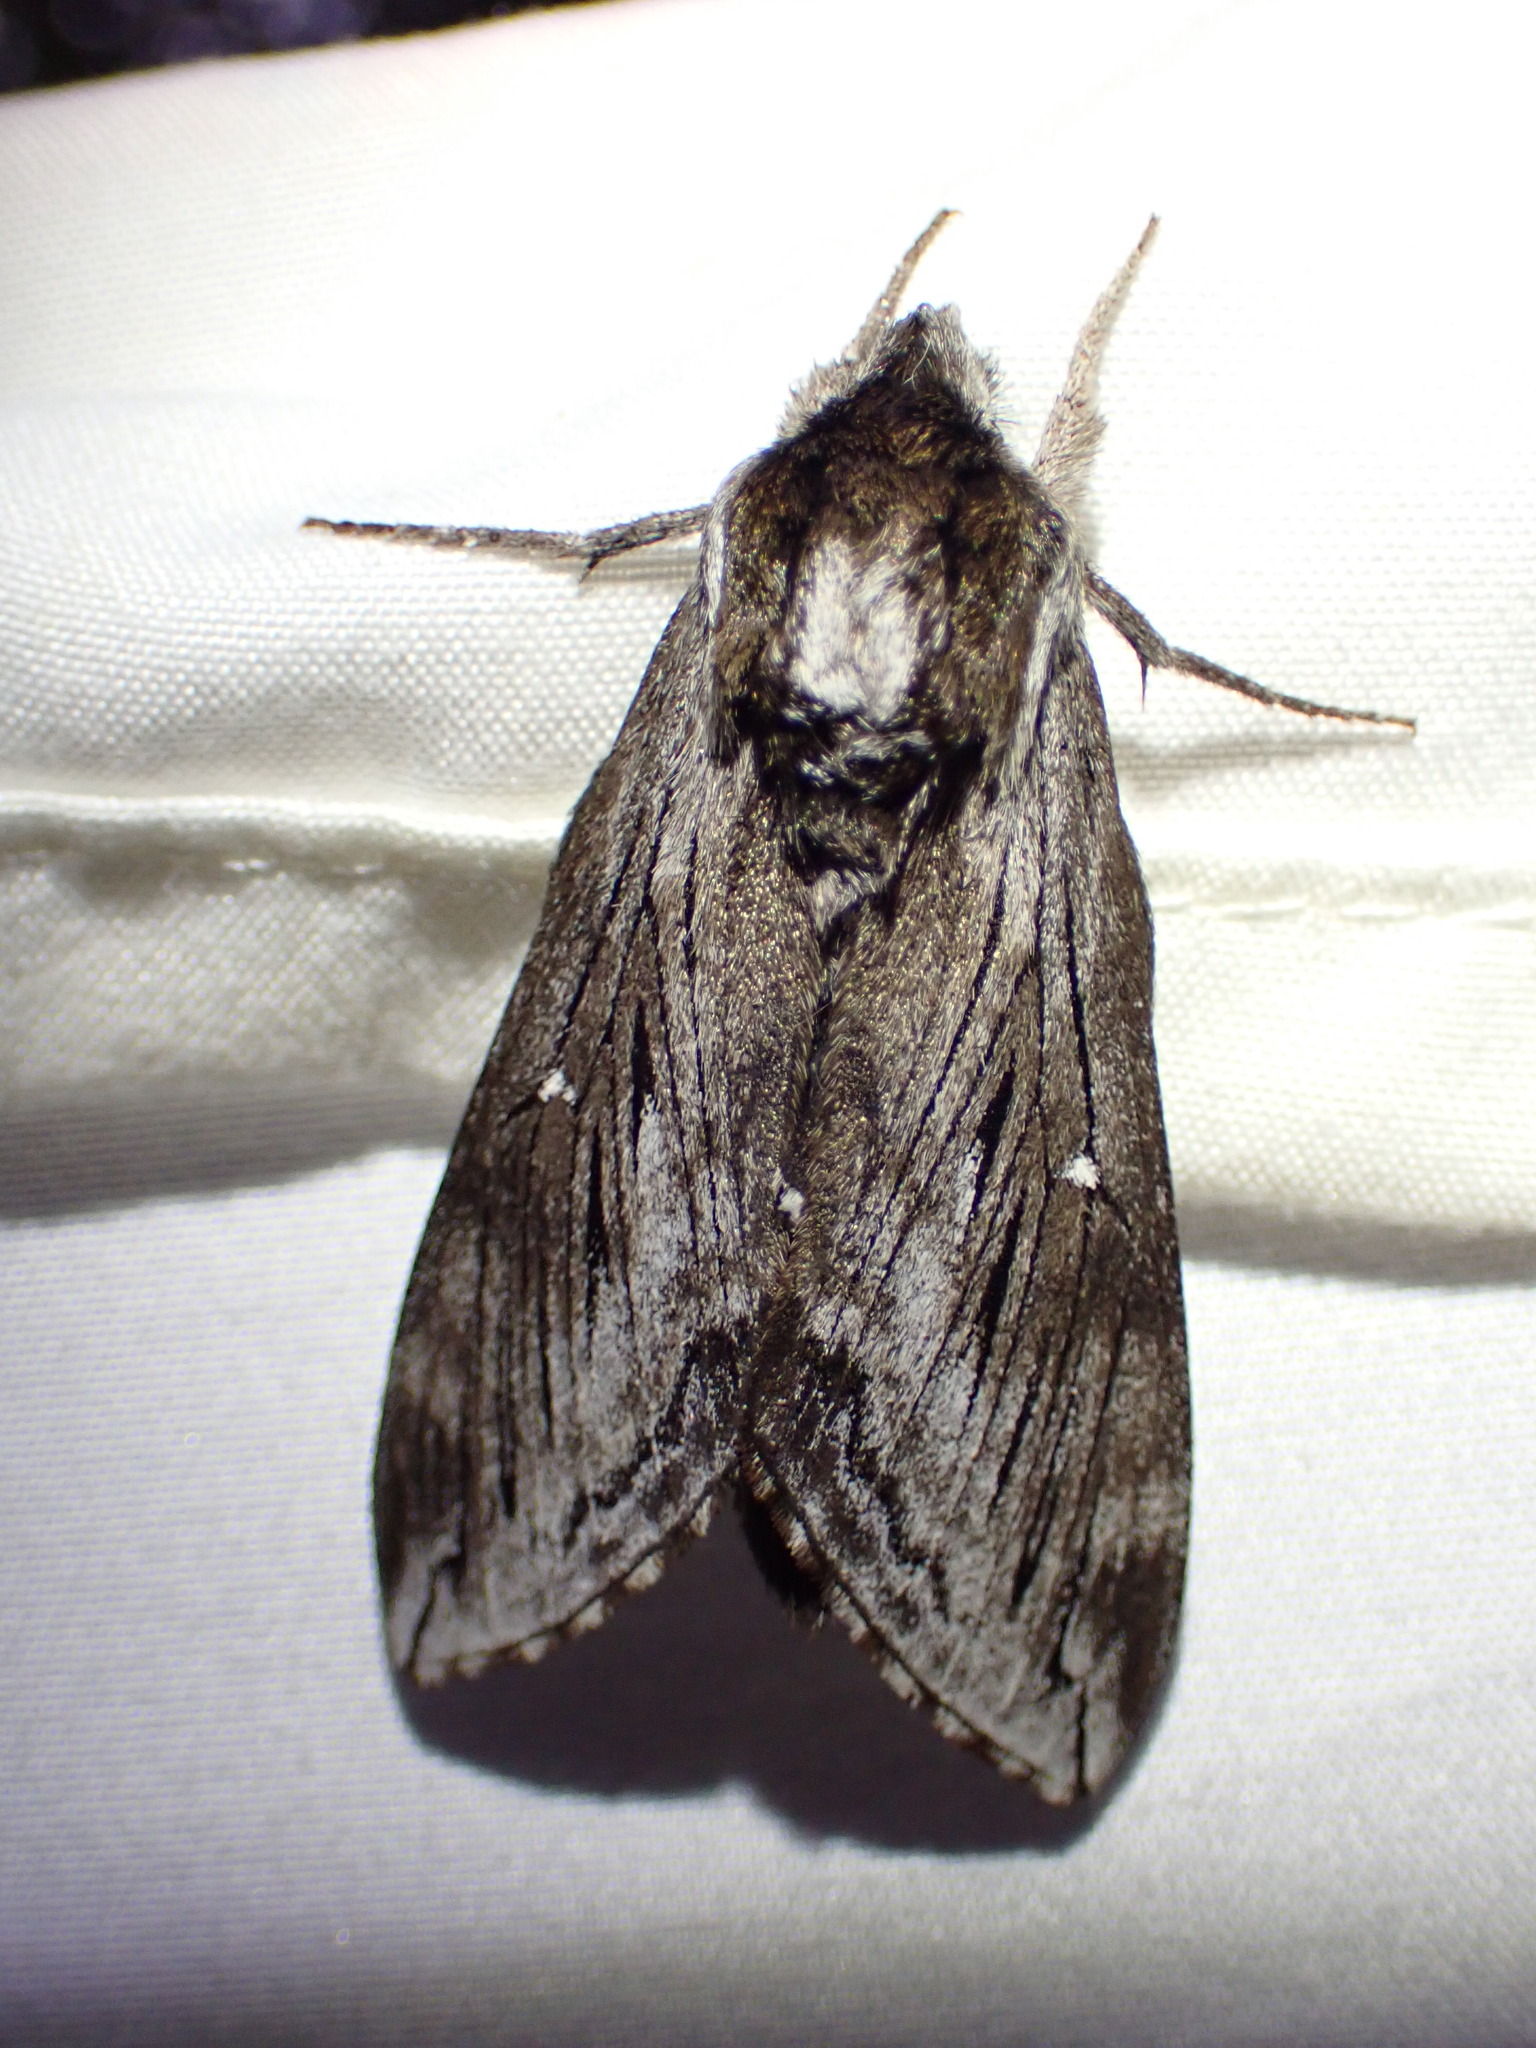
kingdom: Animalia
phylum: Arthropoda
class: Insecta
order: Lepidoptera
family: Sphingidae
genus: Sphinx
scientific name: Sphinx poecila
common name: Northern apple sphinx
